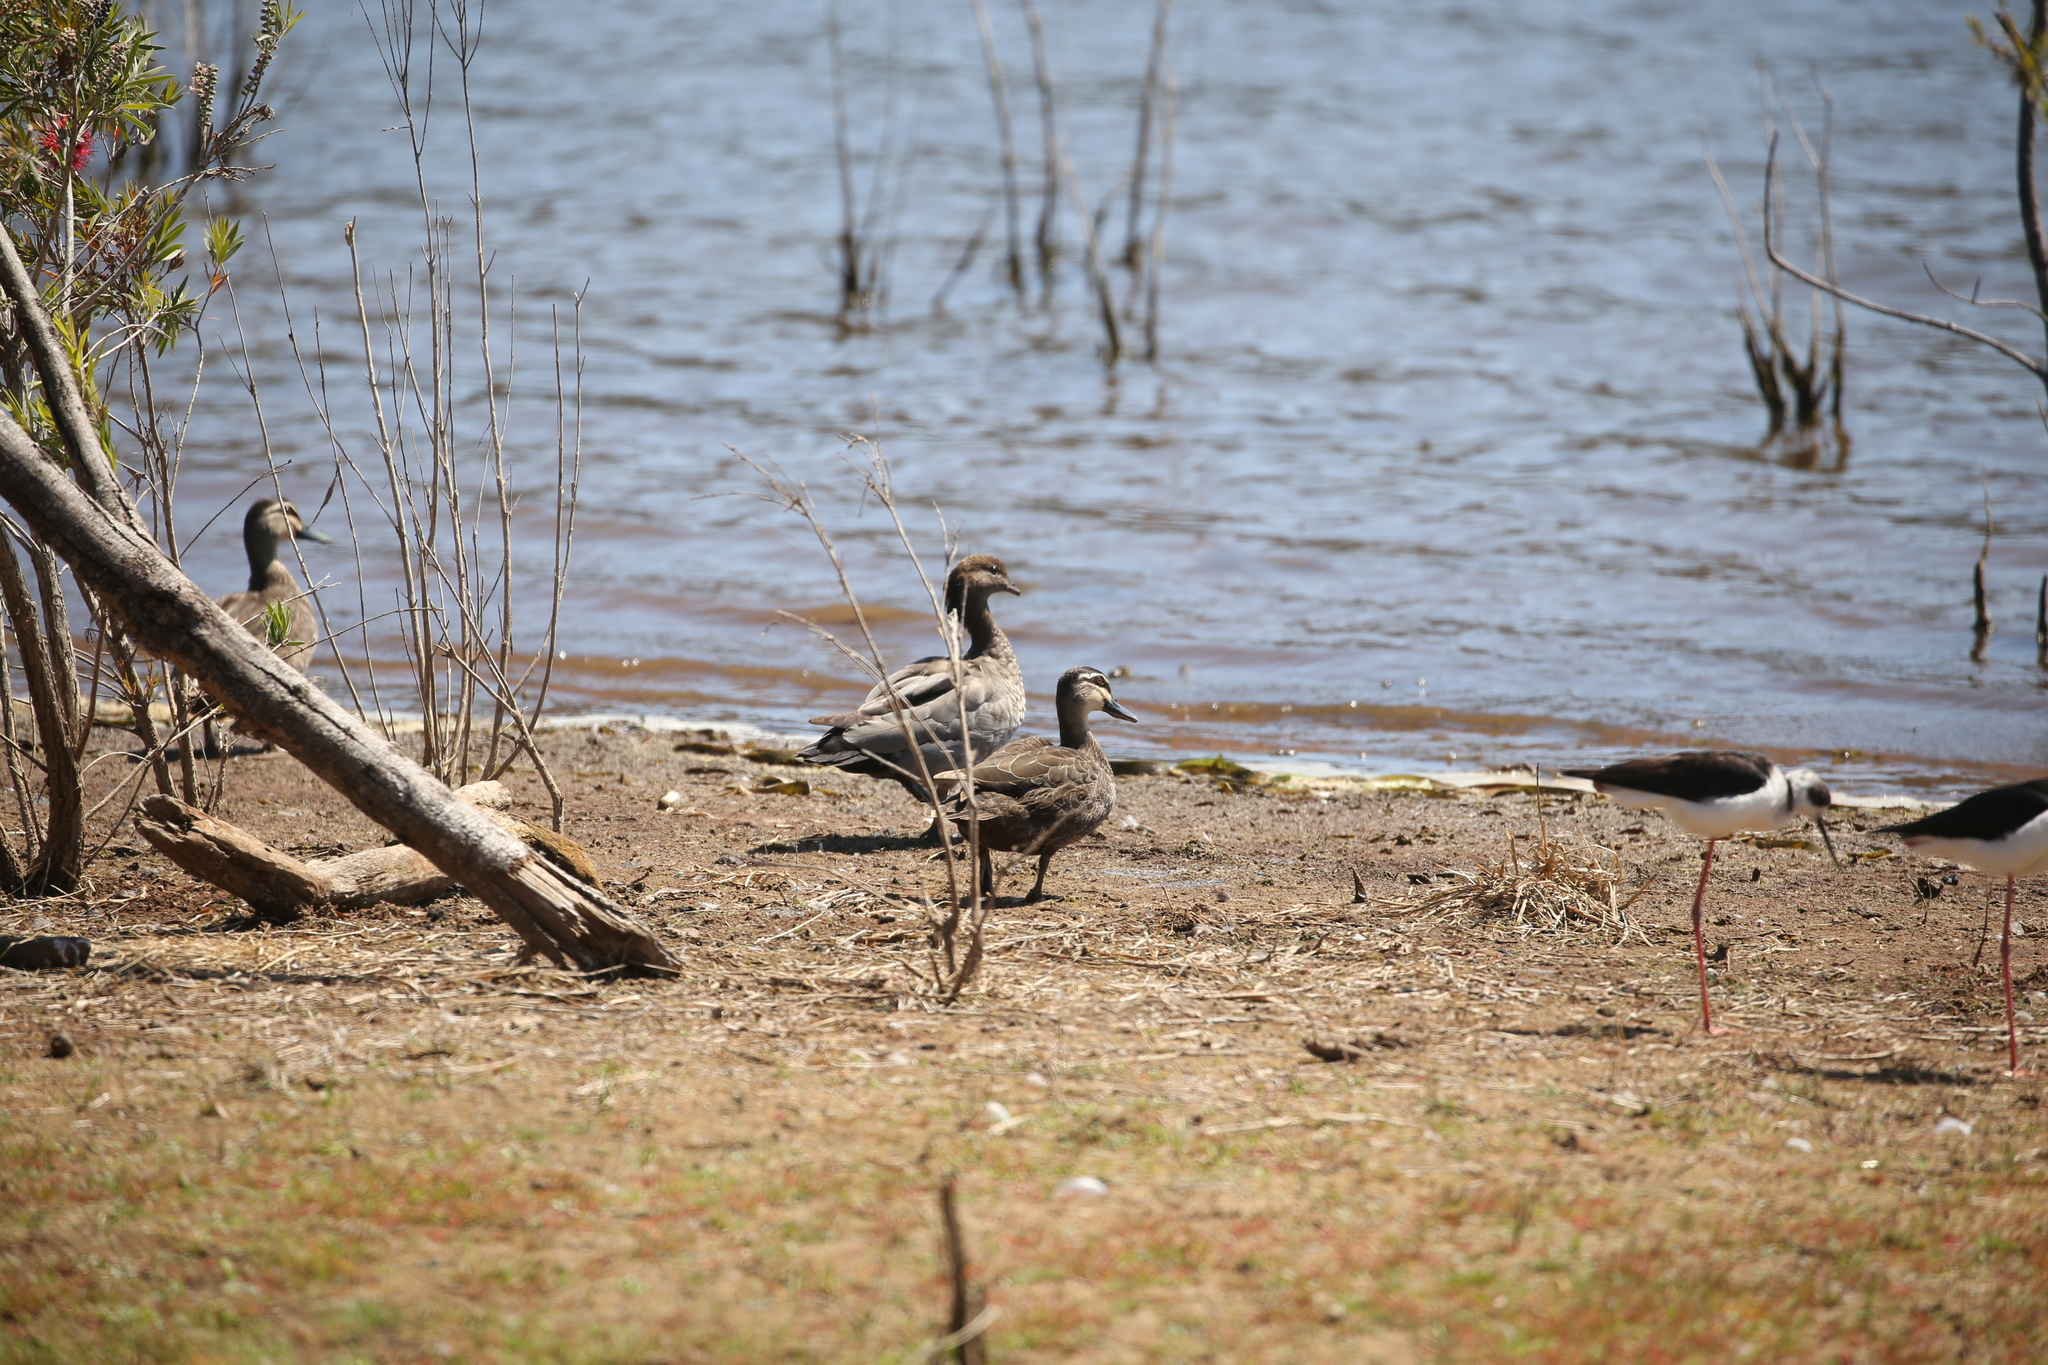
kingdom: Animalia
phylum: Chordata
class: Aves
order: Anseriformes
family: Anatidae
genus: Chenonetta
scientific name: Chenonetta jubata
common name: Maned duck
